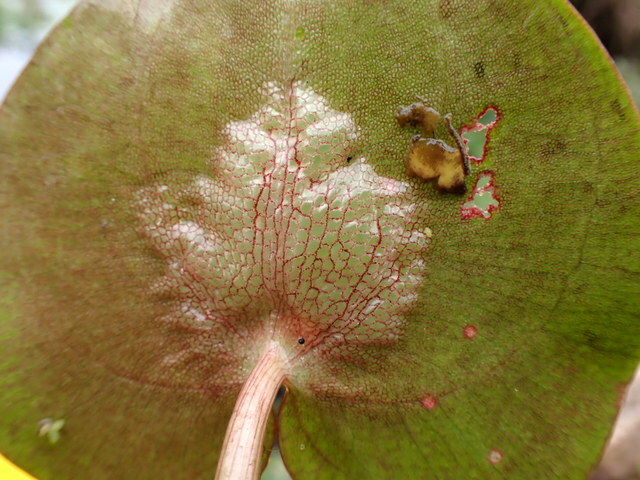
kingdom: Plantae
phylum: Tracheophyta
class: Liliopsida
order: Alismatales
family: Hydrocharitaceae
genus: Hydrocharis
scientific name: Hydrocharis spongia
